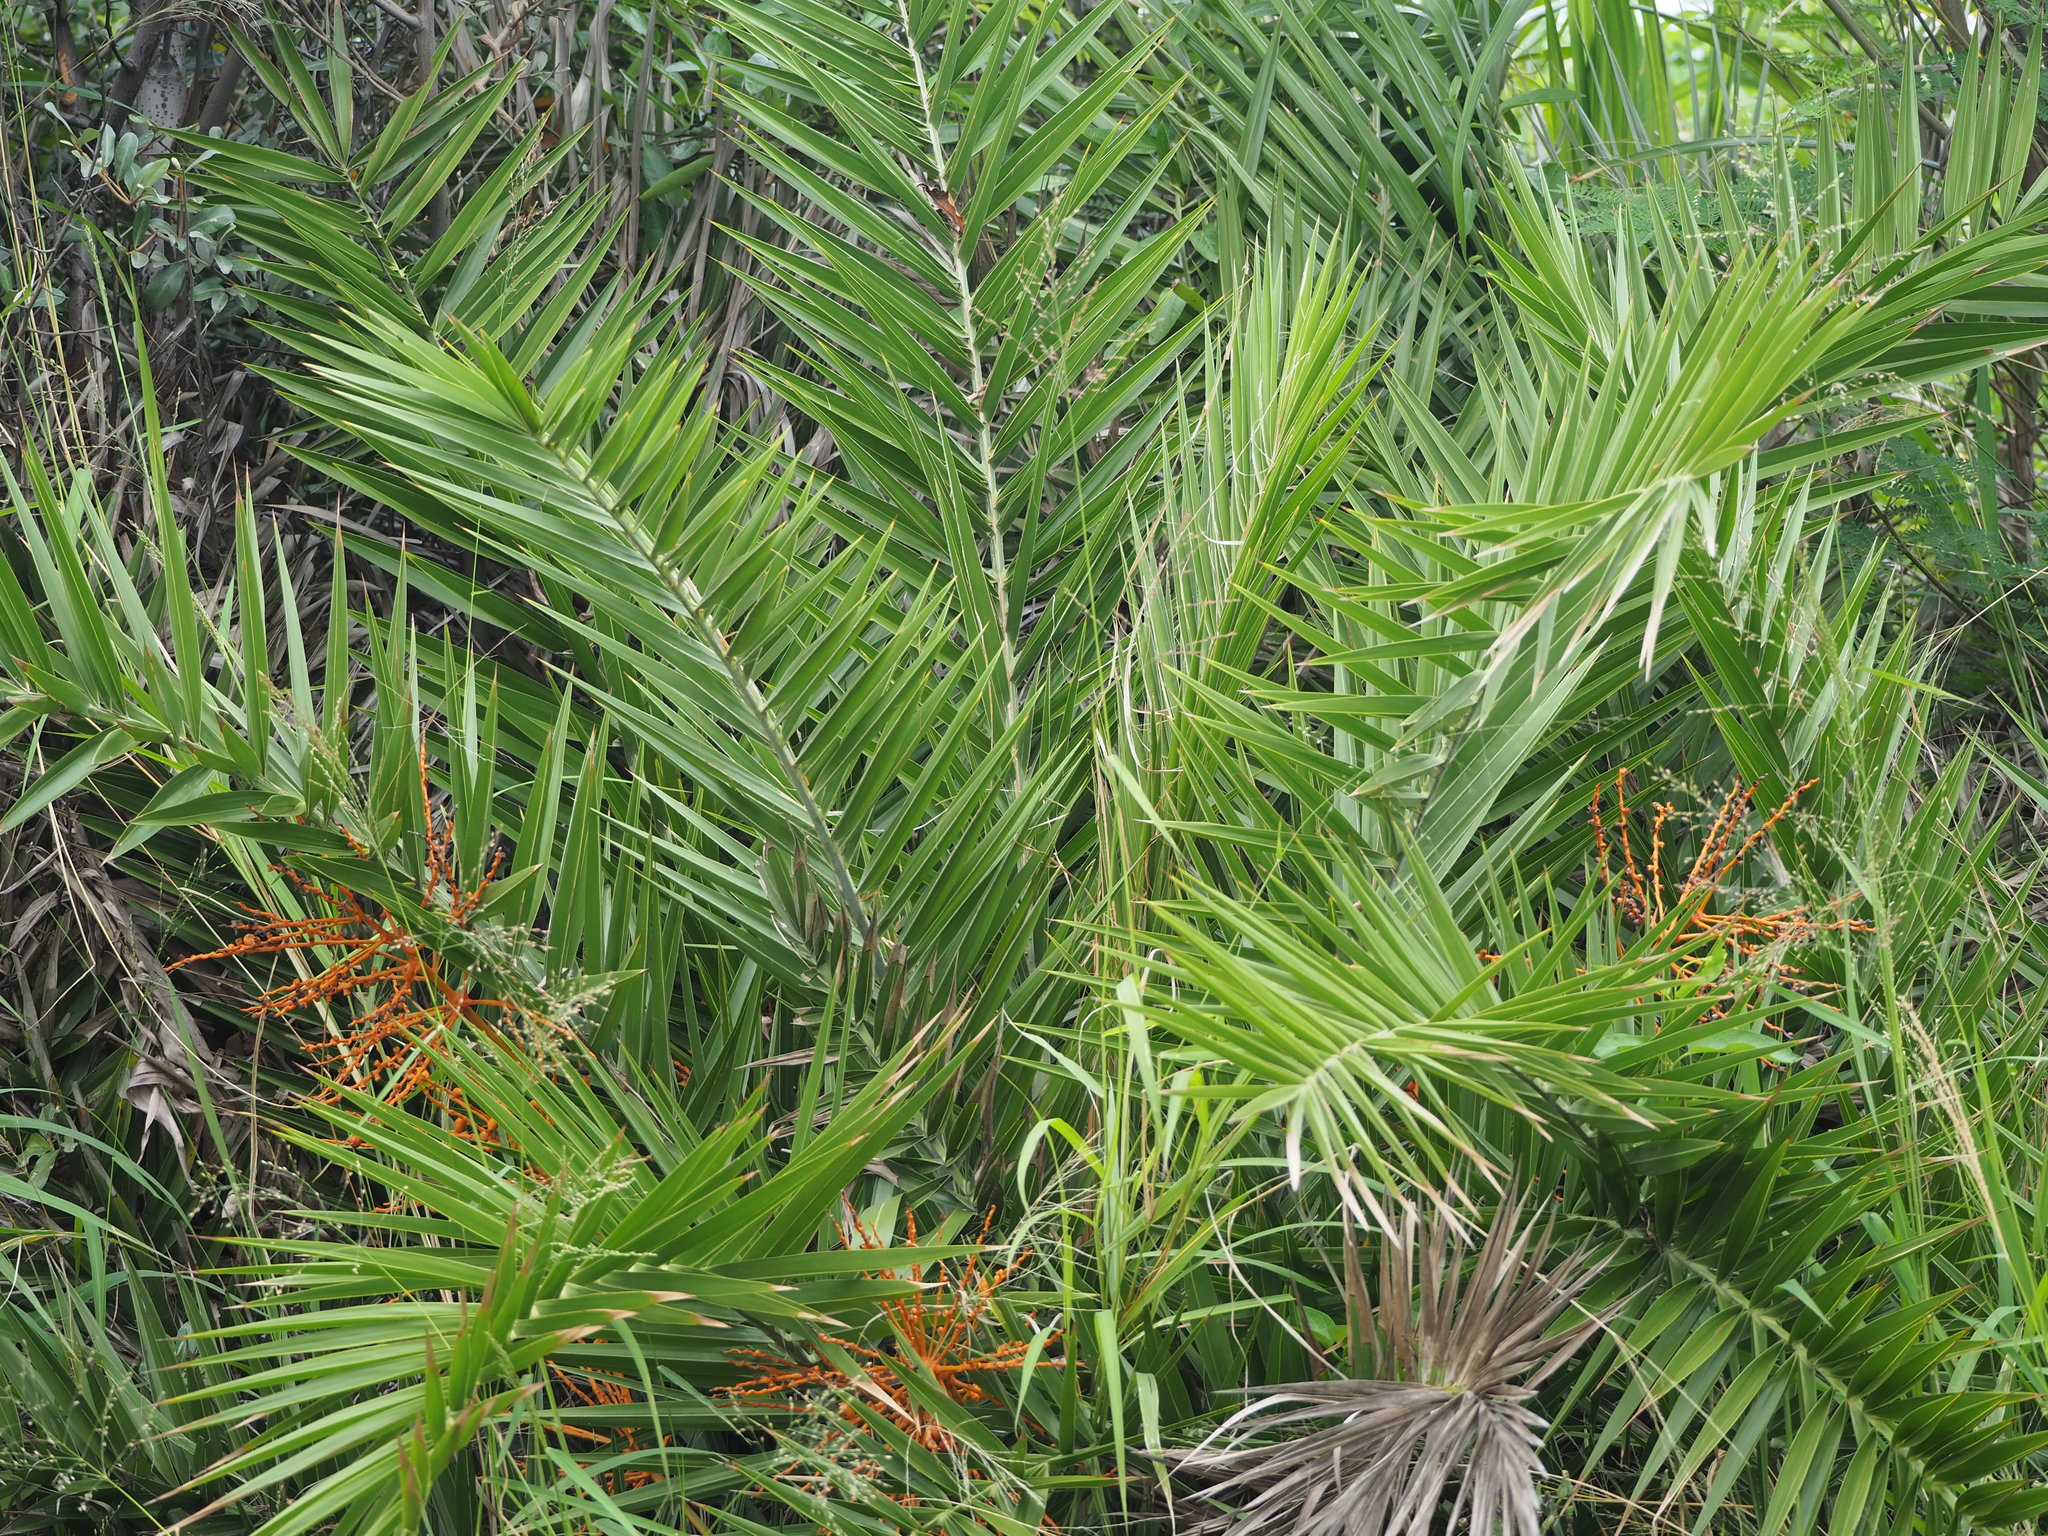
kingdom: Plantae
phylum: Tracheophyta
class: Liliopsida
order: Arecales
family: Arecaceae
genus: Phoenix
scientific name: Phoenix loureiroi
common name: Loureiro's palm
